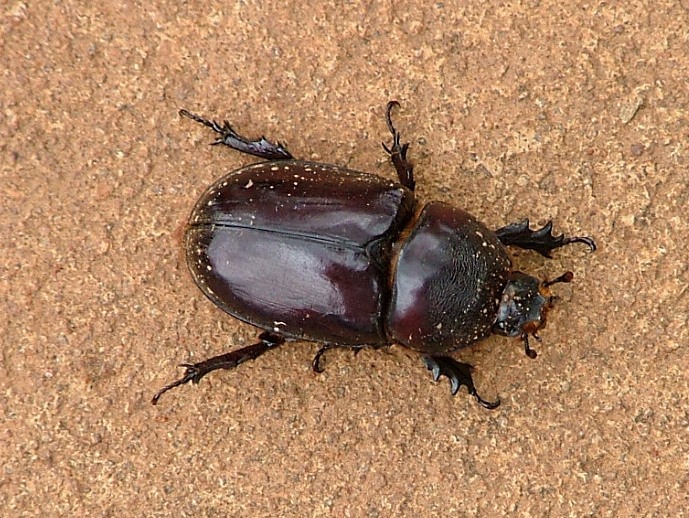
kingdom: Animalia
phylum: Arthropoda
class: Insecta
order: Coleoptera
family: Scarabaeidae
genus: Oryctes
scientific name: Oryctes boas
